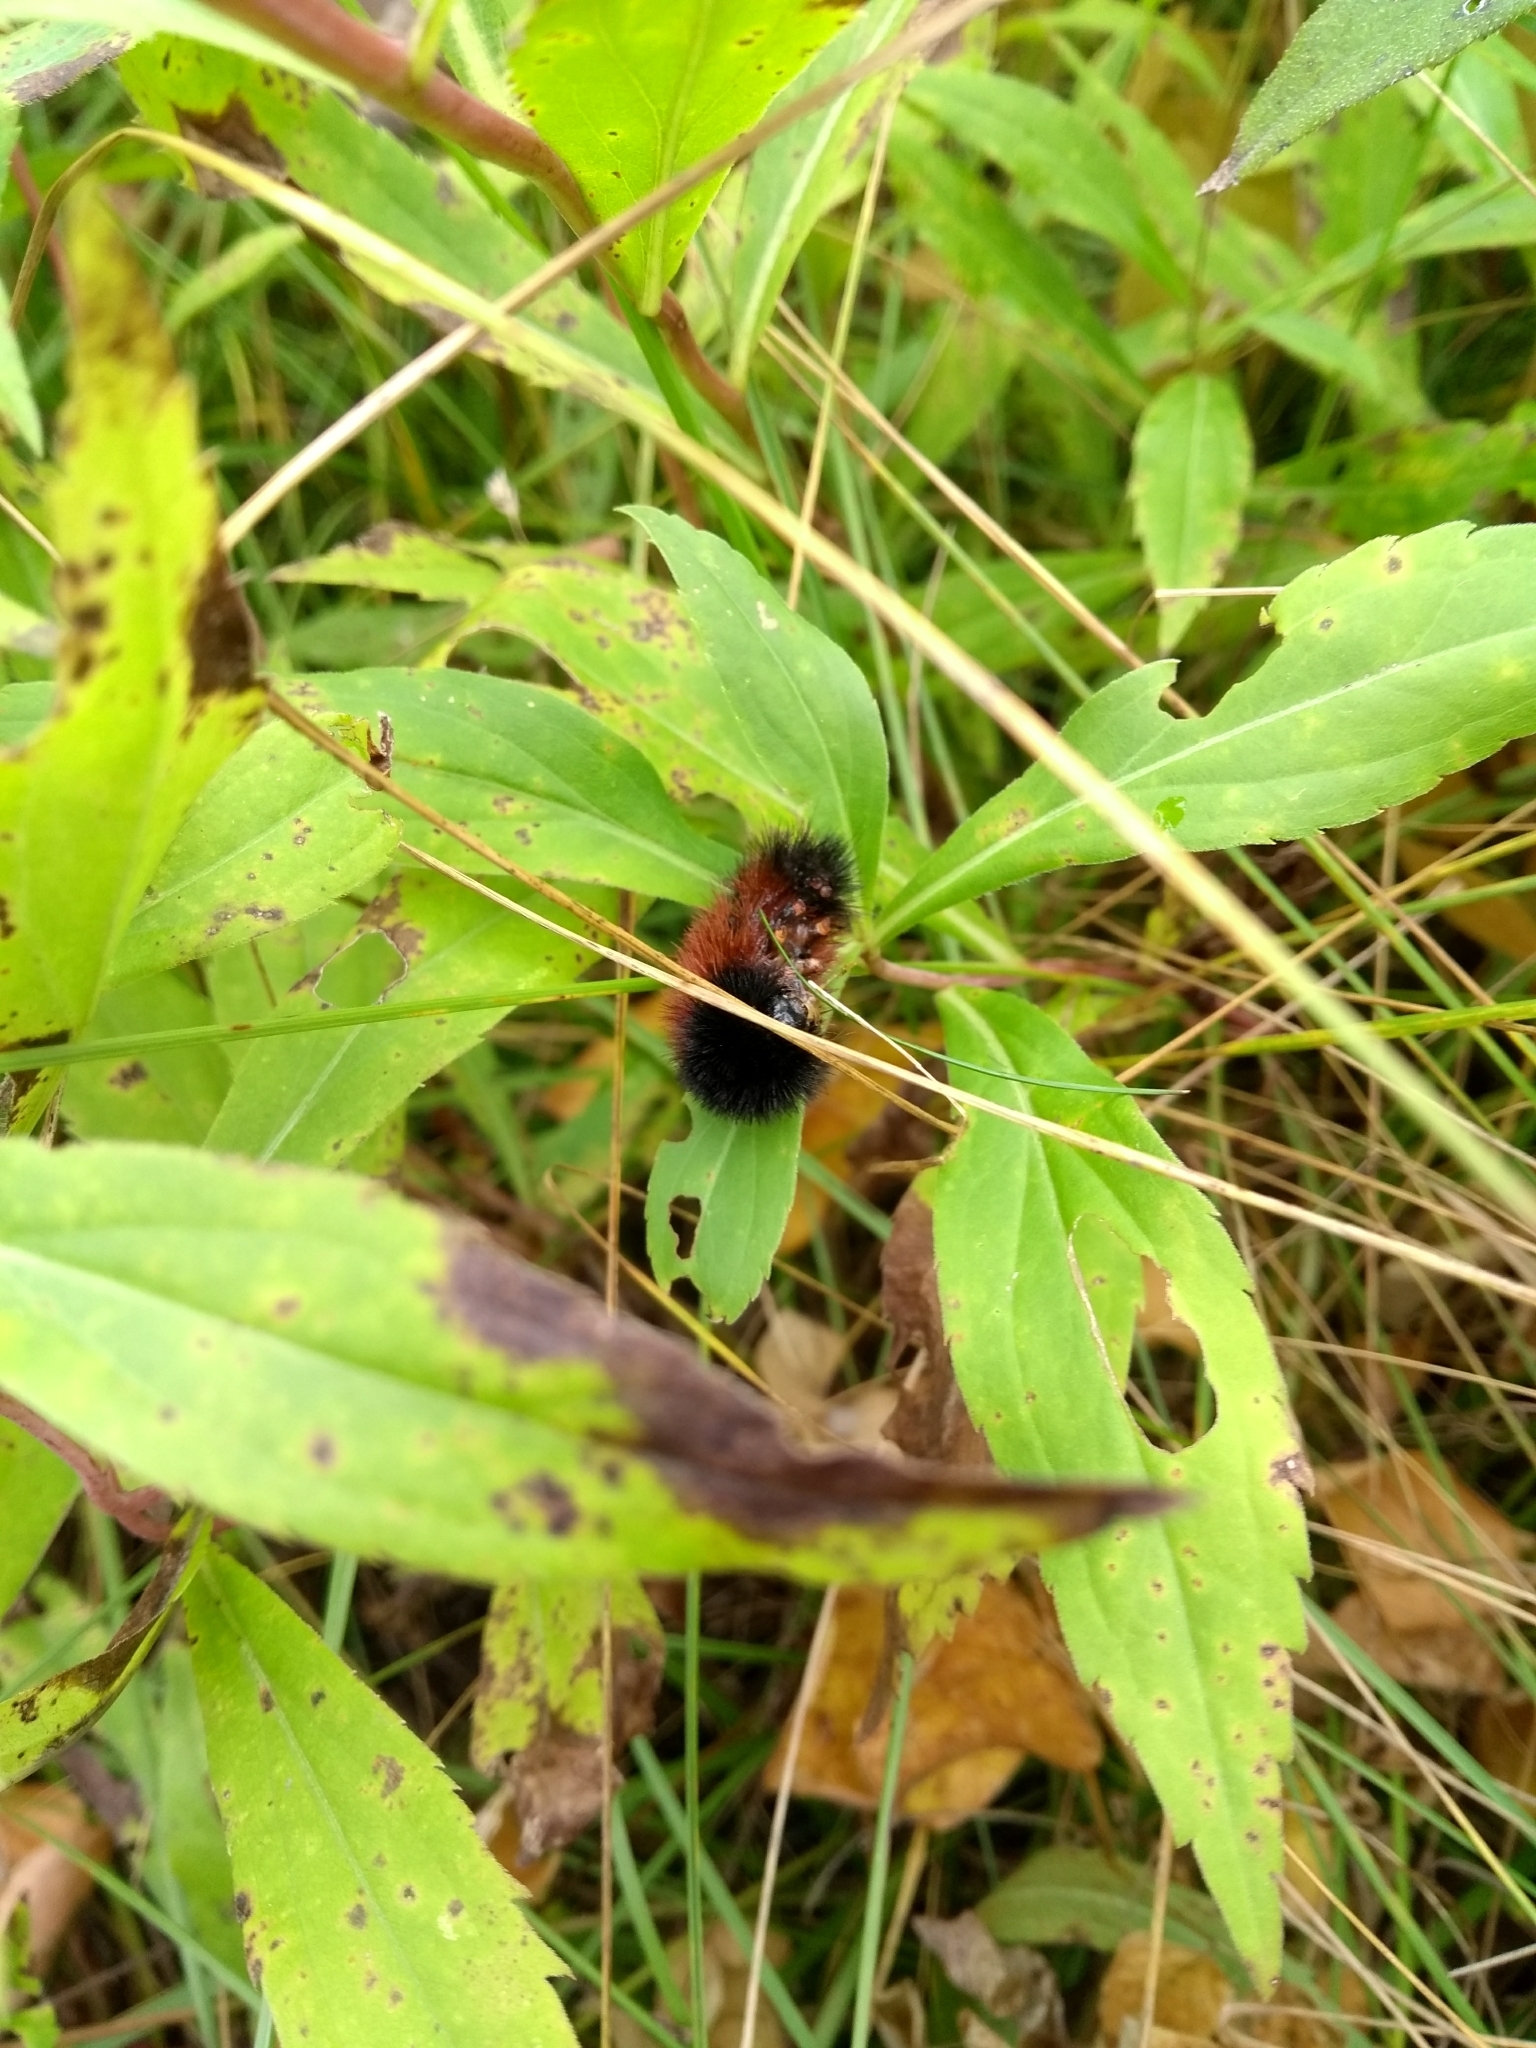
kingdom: Animalia
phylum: Arthropoda
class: Insecta
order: Lepidoptera
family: Erebidae
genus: Pyrrharctia
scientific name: Pyrrharctia isabella
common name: Isabella tiger moth
